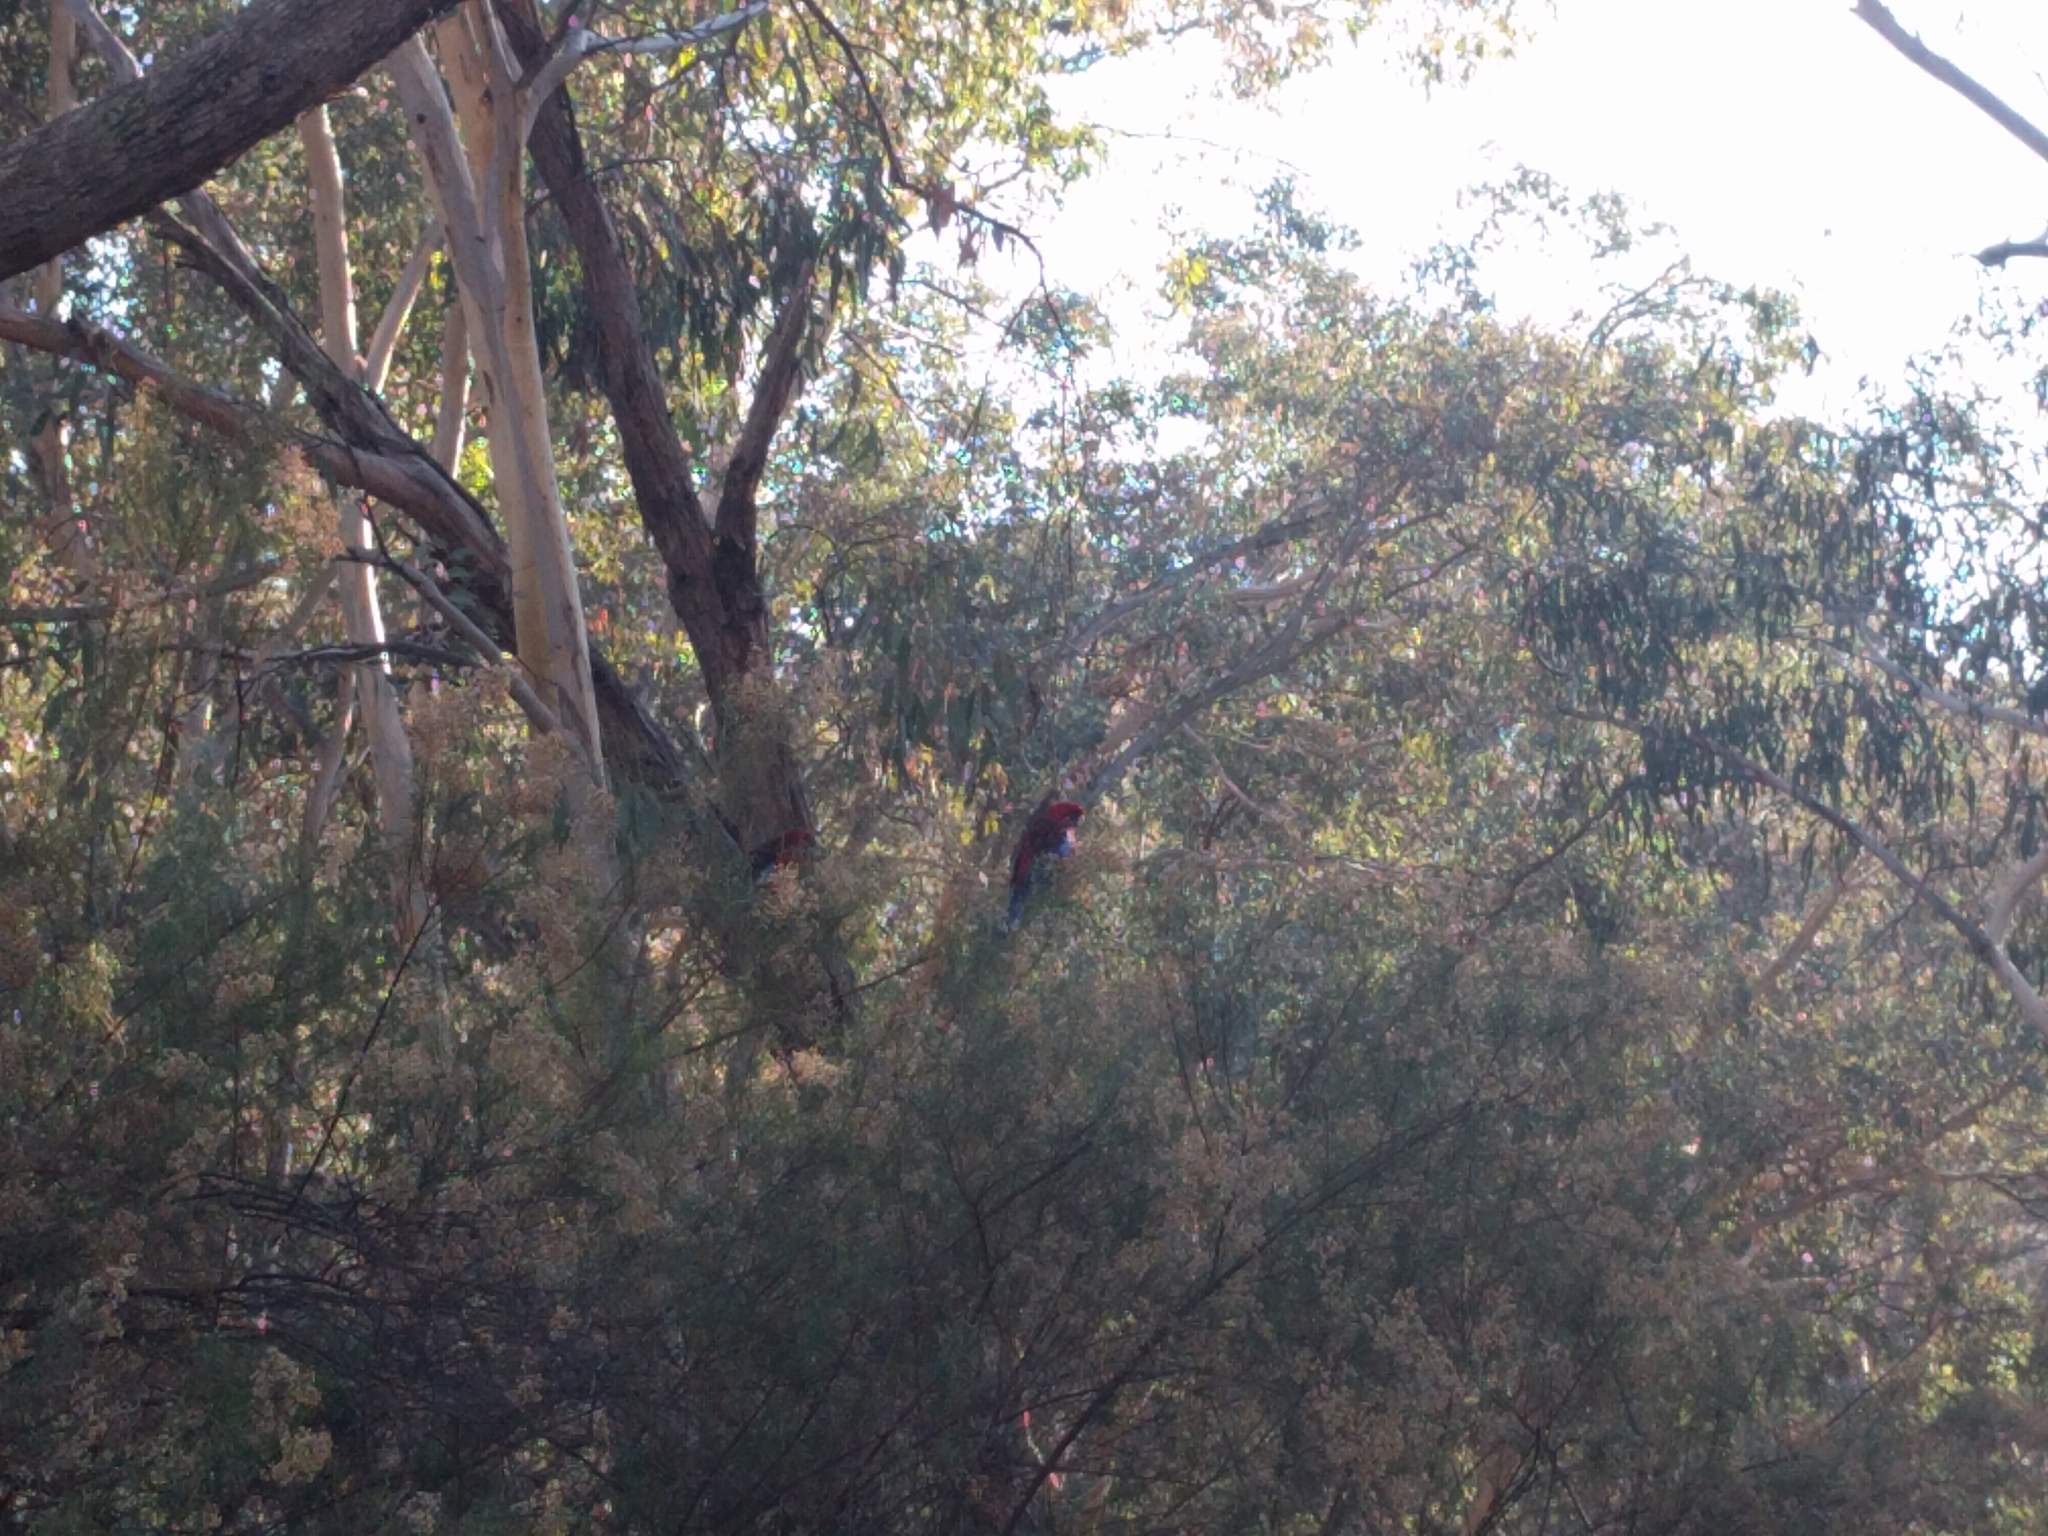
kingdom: Animalia
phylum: Chordata
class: Aves
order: Psittaciformes
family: Psittacidae
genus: Platycercus
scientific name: Platycercus elegans
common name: Crimson rosella
